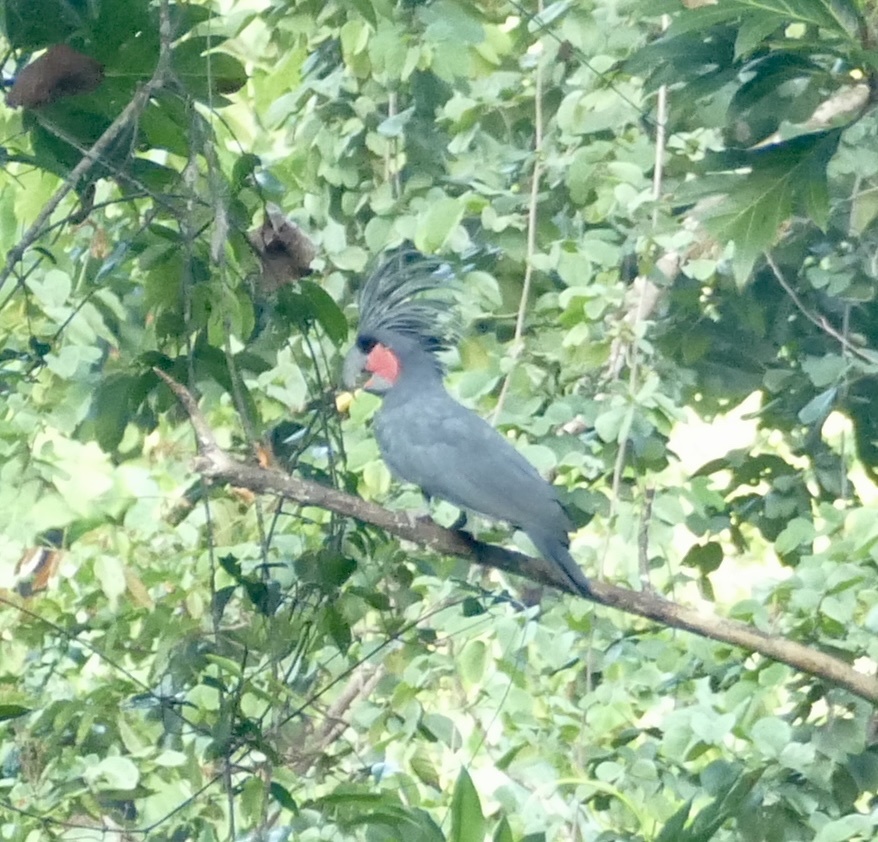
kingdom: Animalia
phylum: Chordata
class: Aves
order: Psittaciformes
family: Psittacidae
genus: Probosciger
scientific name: Probosciger aterrimus
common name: Palm cockatoo
